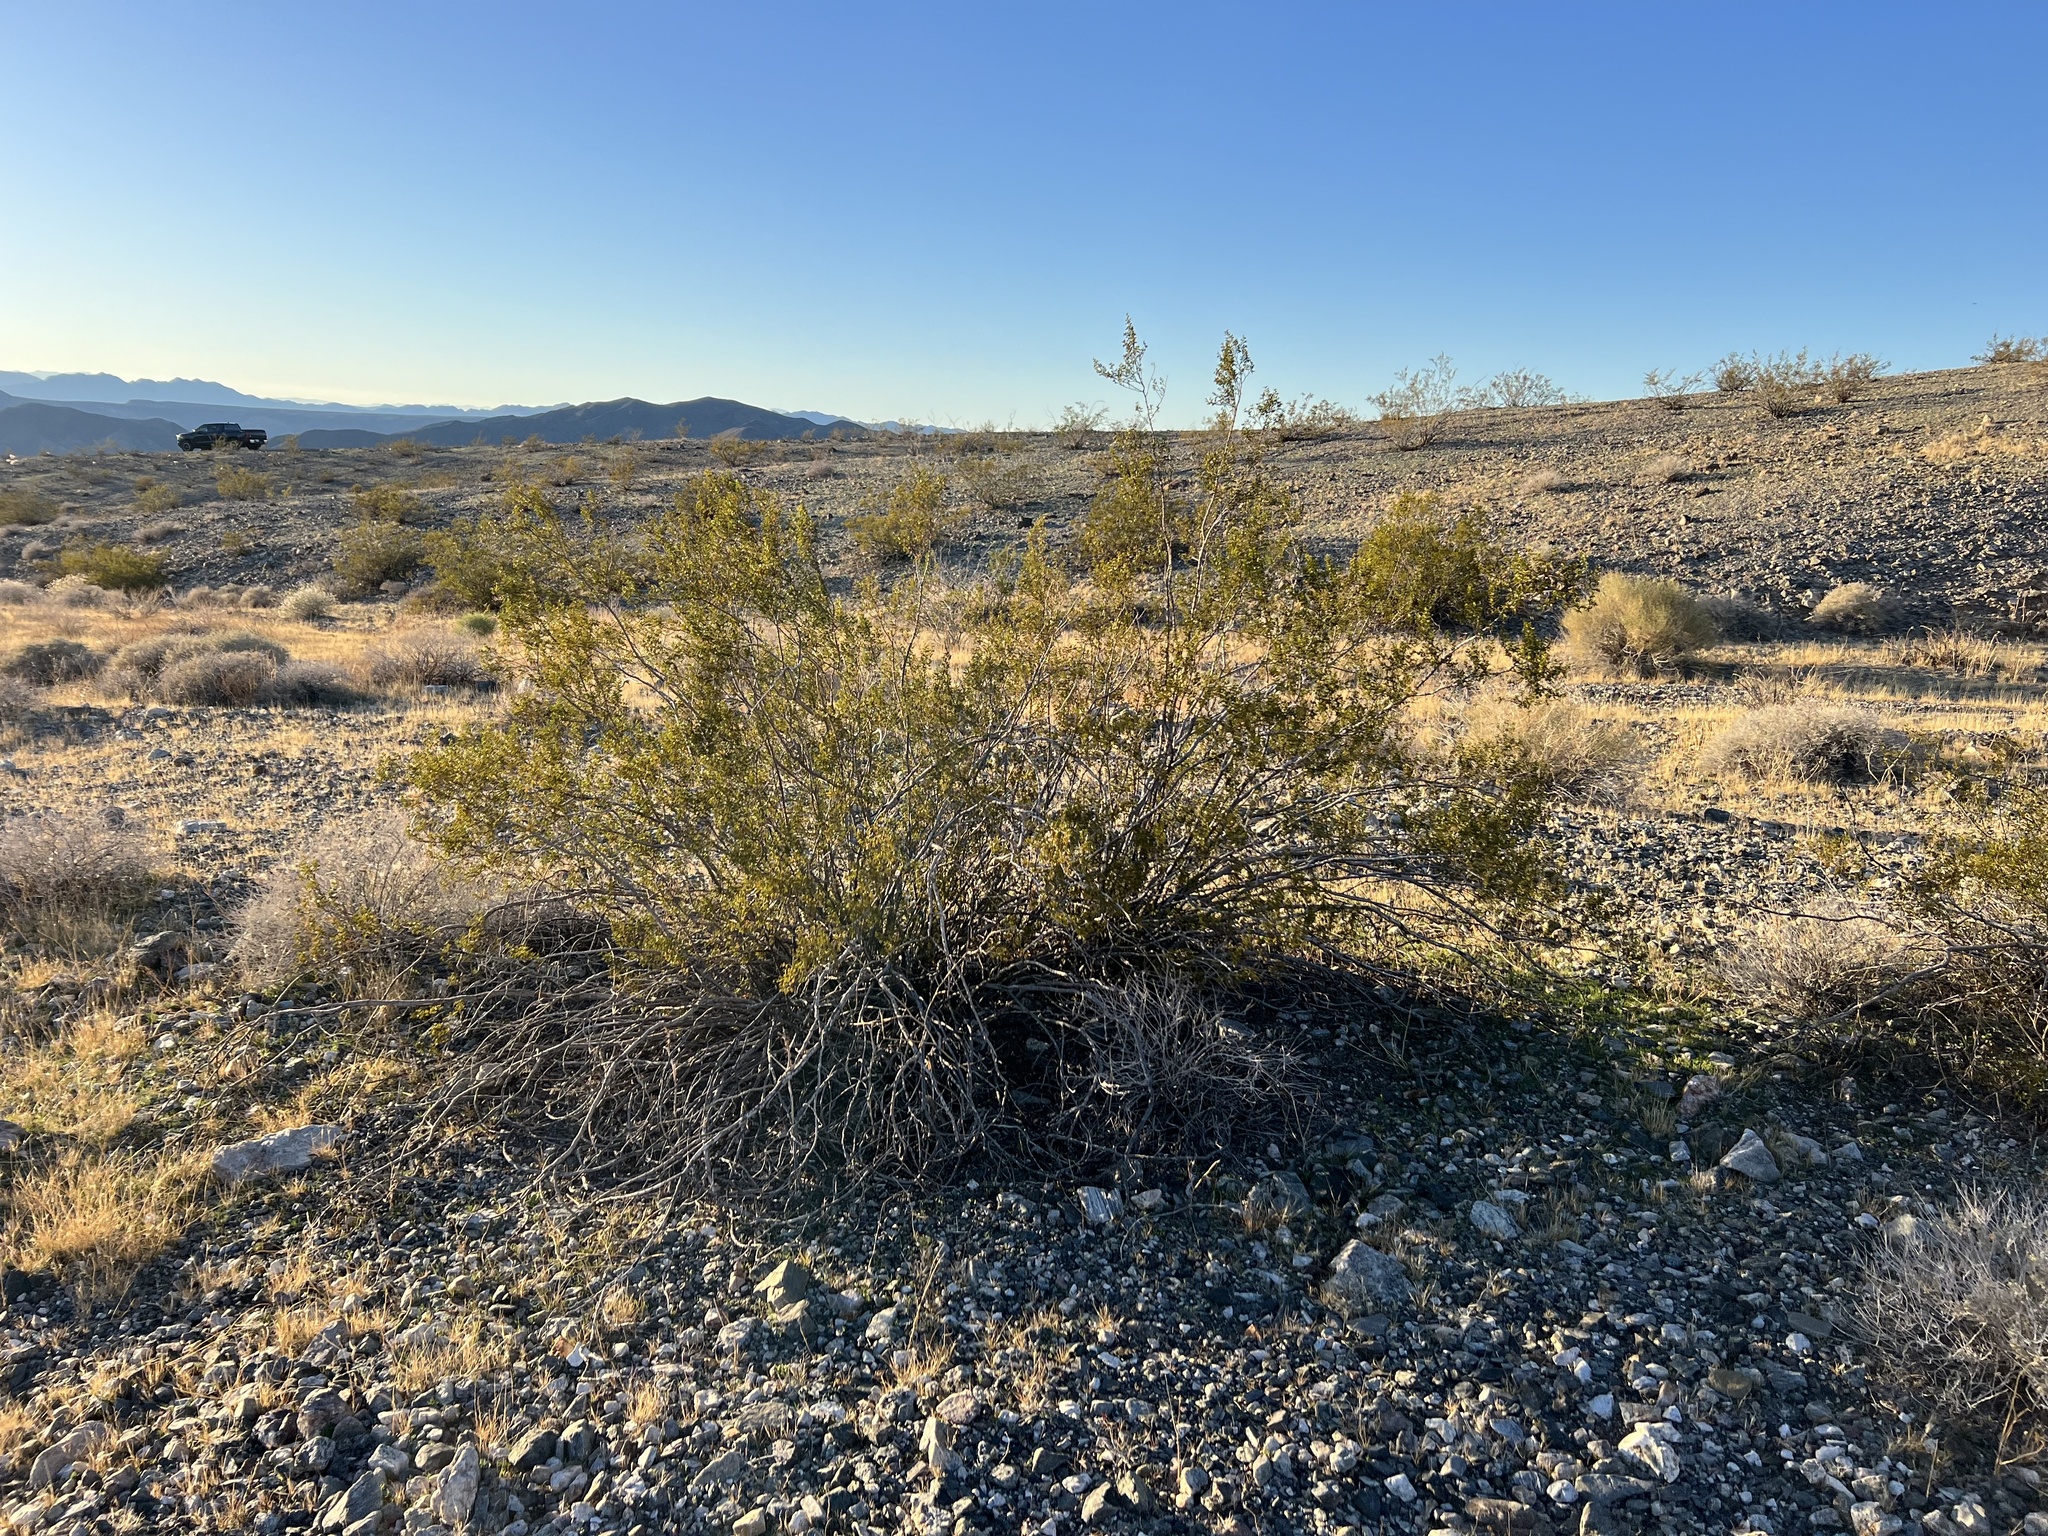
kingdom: Plantae
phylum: Tracheophyta
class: Magnoliopsida
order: Zygophyllales
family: Zygophyllaceae
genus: Larrea
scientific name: Larrea tridentata
